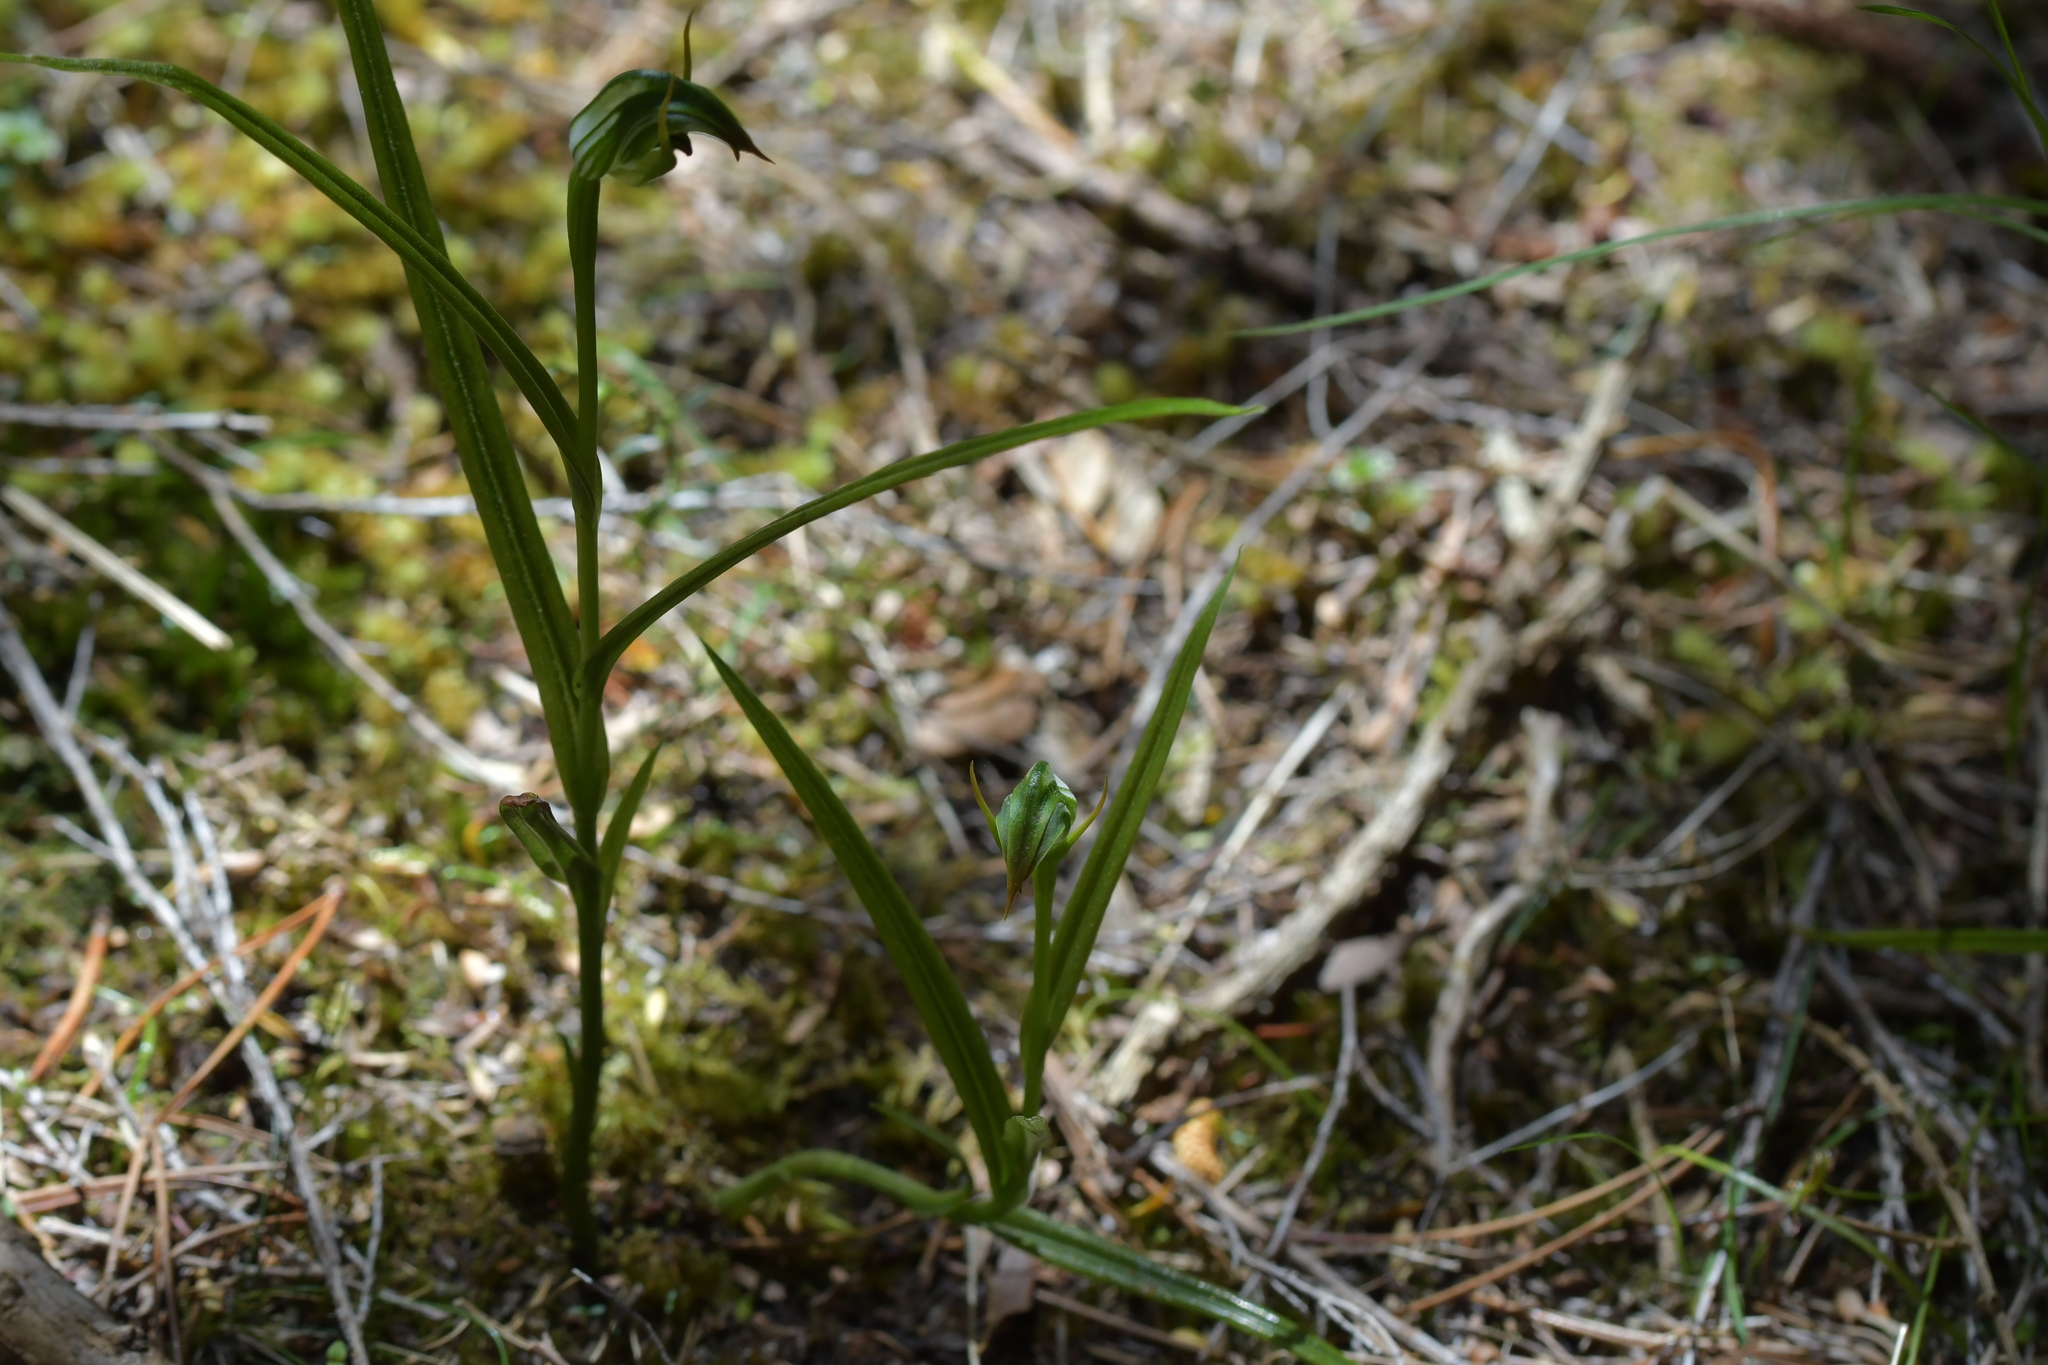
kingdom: Plantae
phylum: Tracheophyta
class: Liliopsida
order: Asparagales
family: Orchidaceae
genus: Pterostylis
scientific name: Pterostylis graminea
